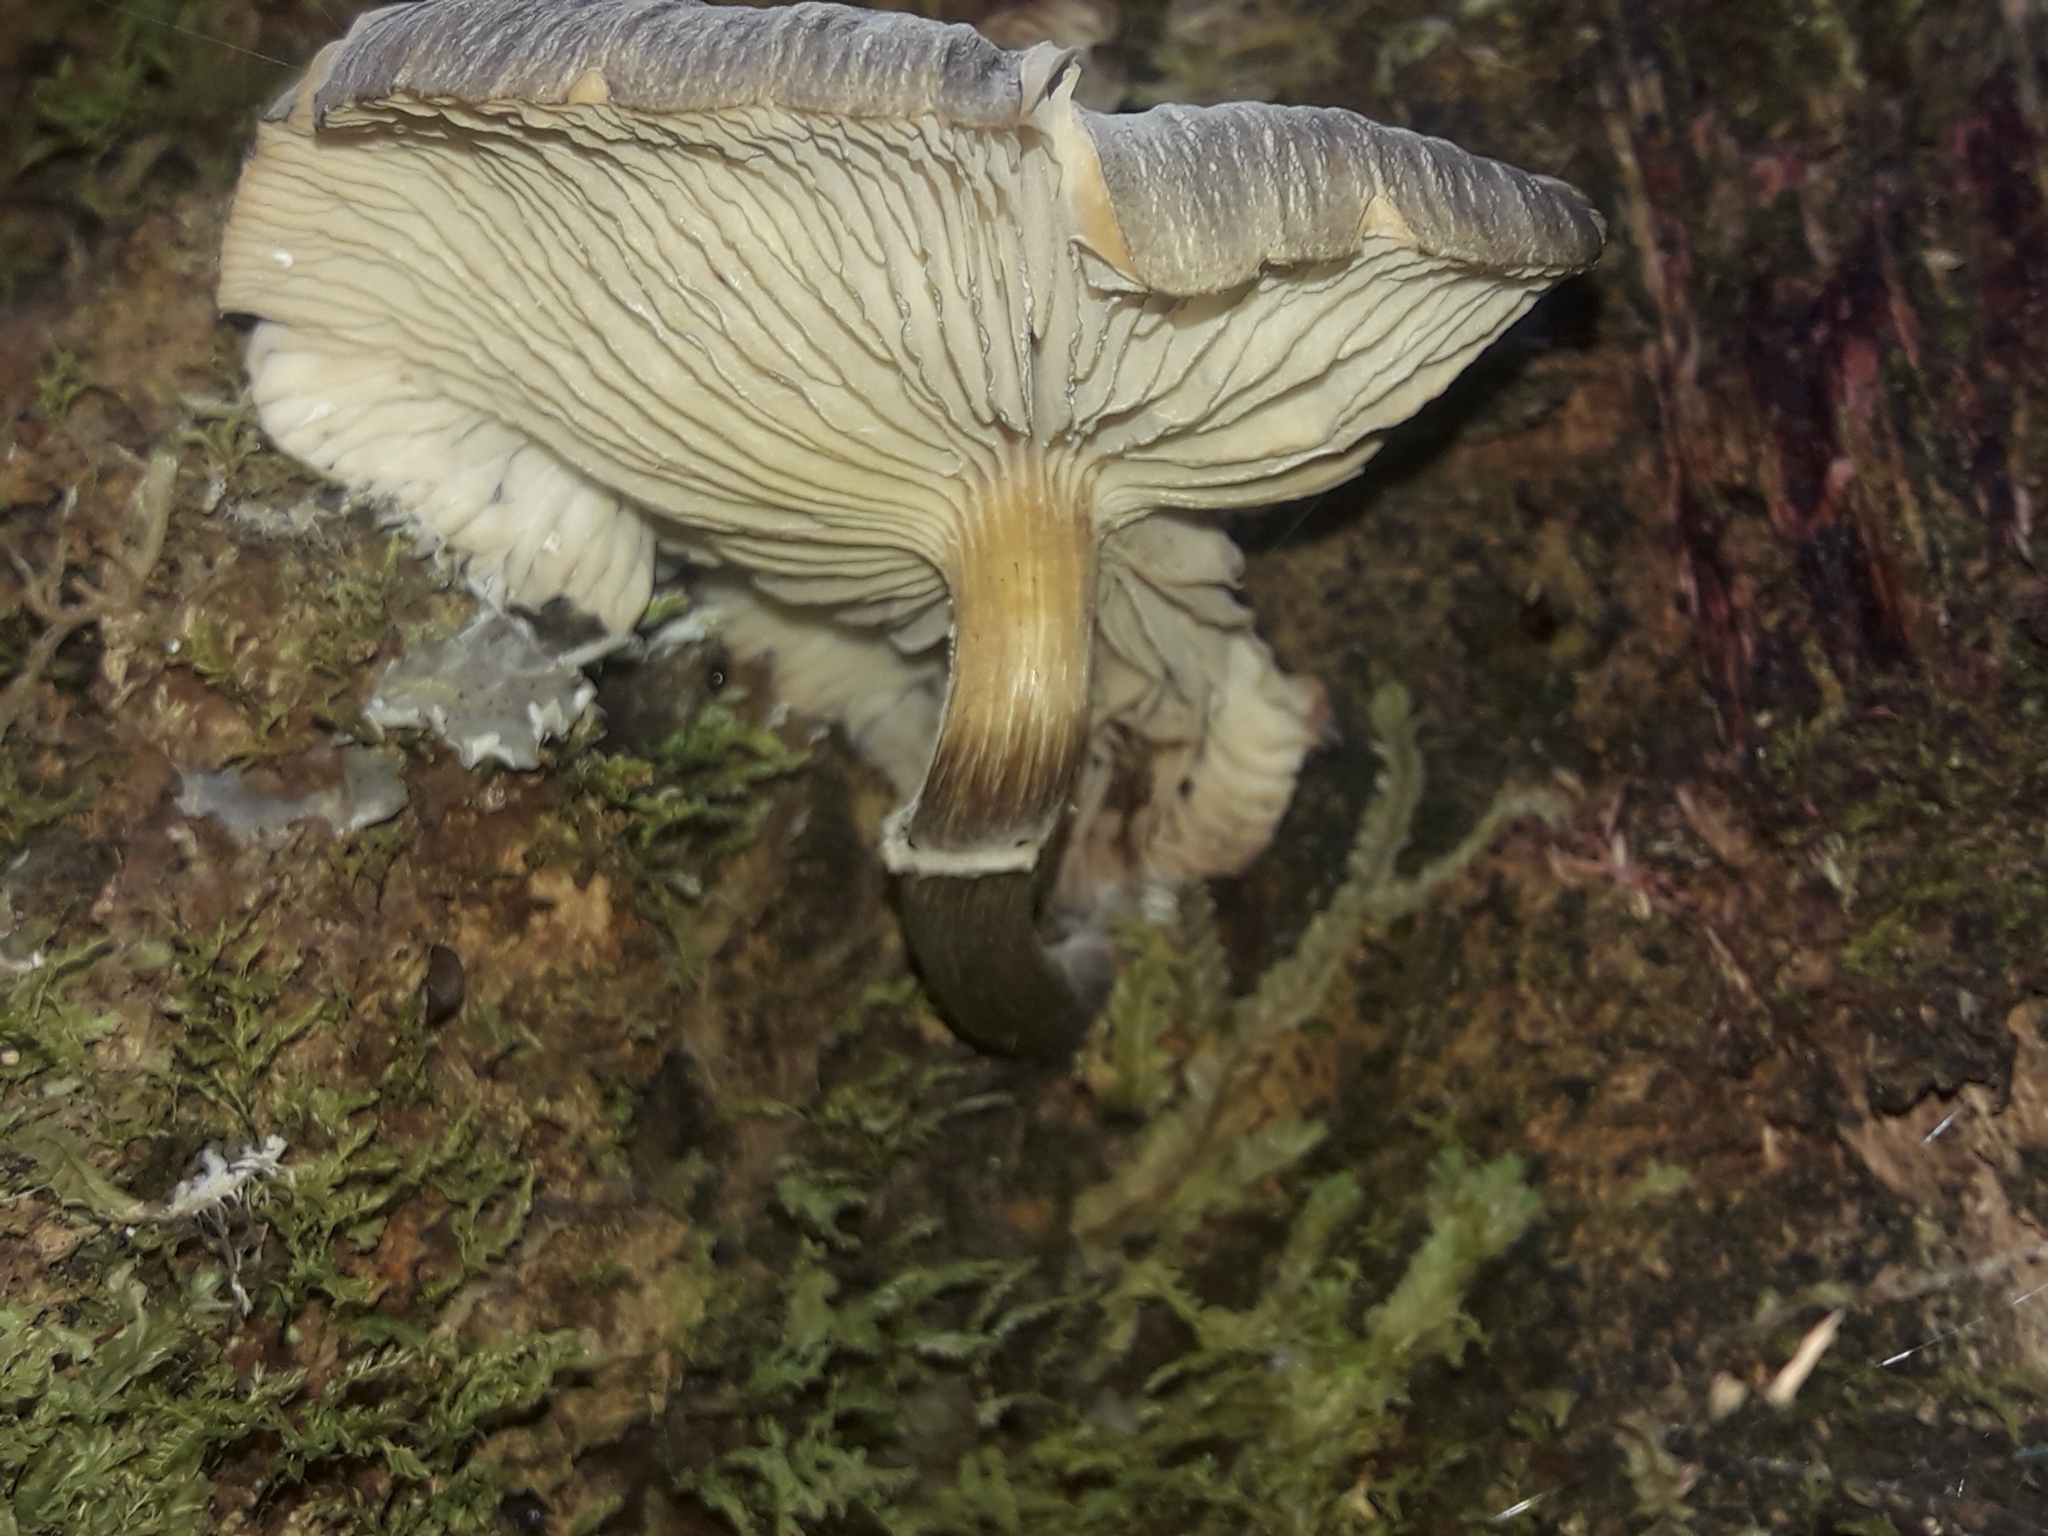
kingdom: Fungi
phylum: Basidiomycota
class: Agaricomycetes
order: Agaricales
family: Physalacriaceae
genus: Armillaria
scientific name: Armillaria novae-zelandiae
